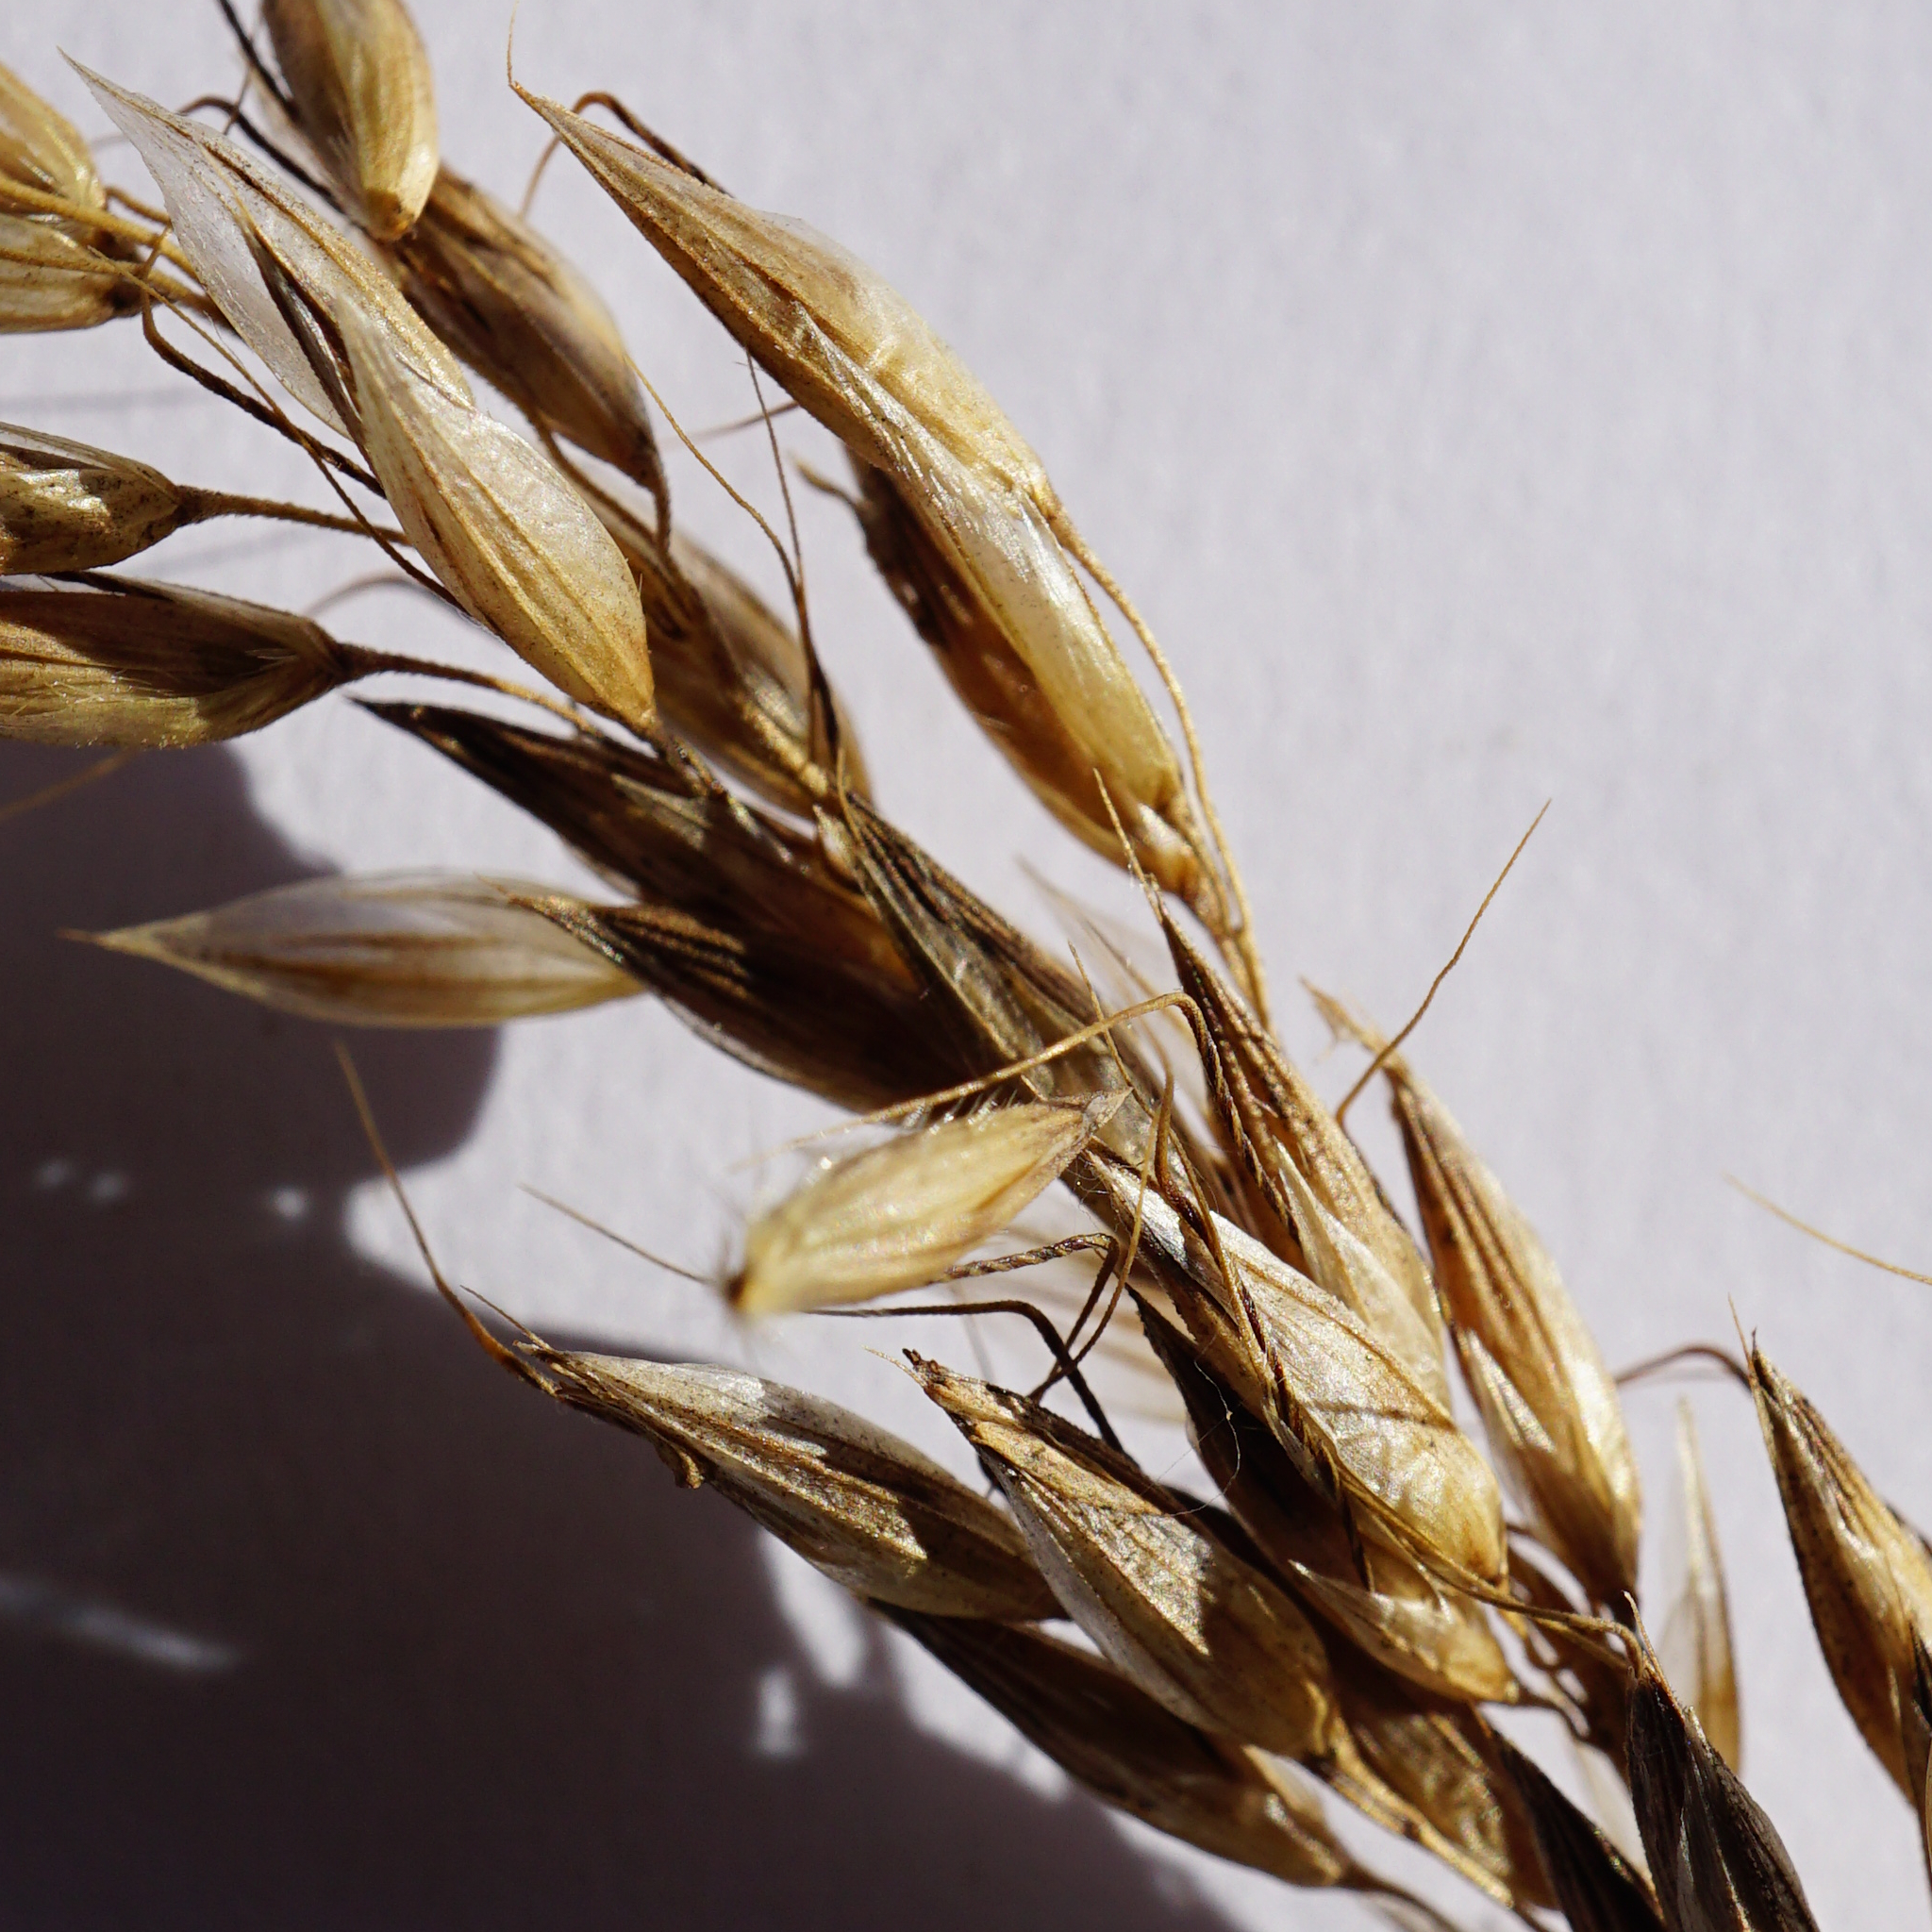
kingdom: Plantae
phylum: Tracheophyta
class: Liliopsida
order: Poales
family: Poaceae
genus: Arrhenatherum
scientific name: Arrhenatherum elatius
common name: Tall oatgrass
